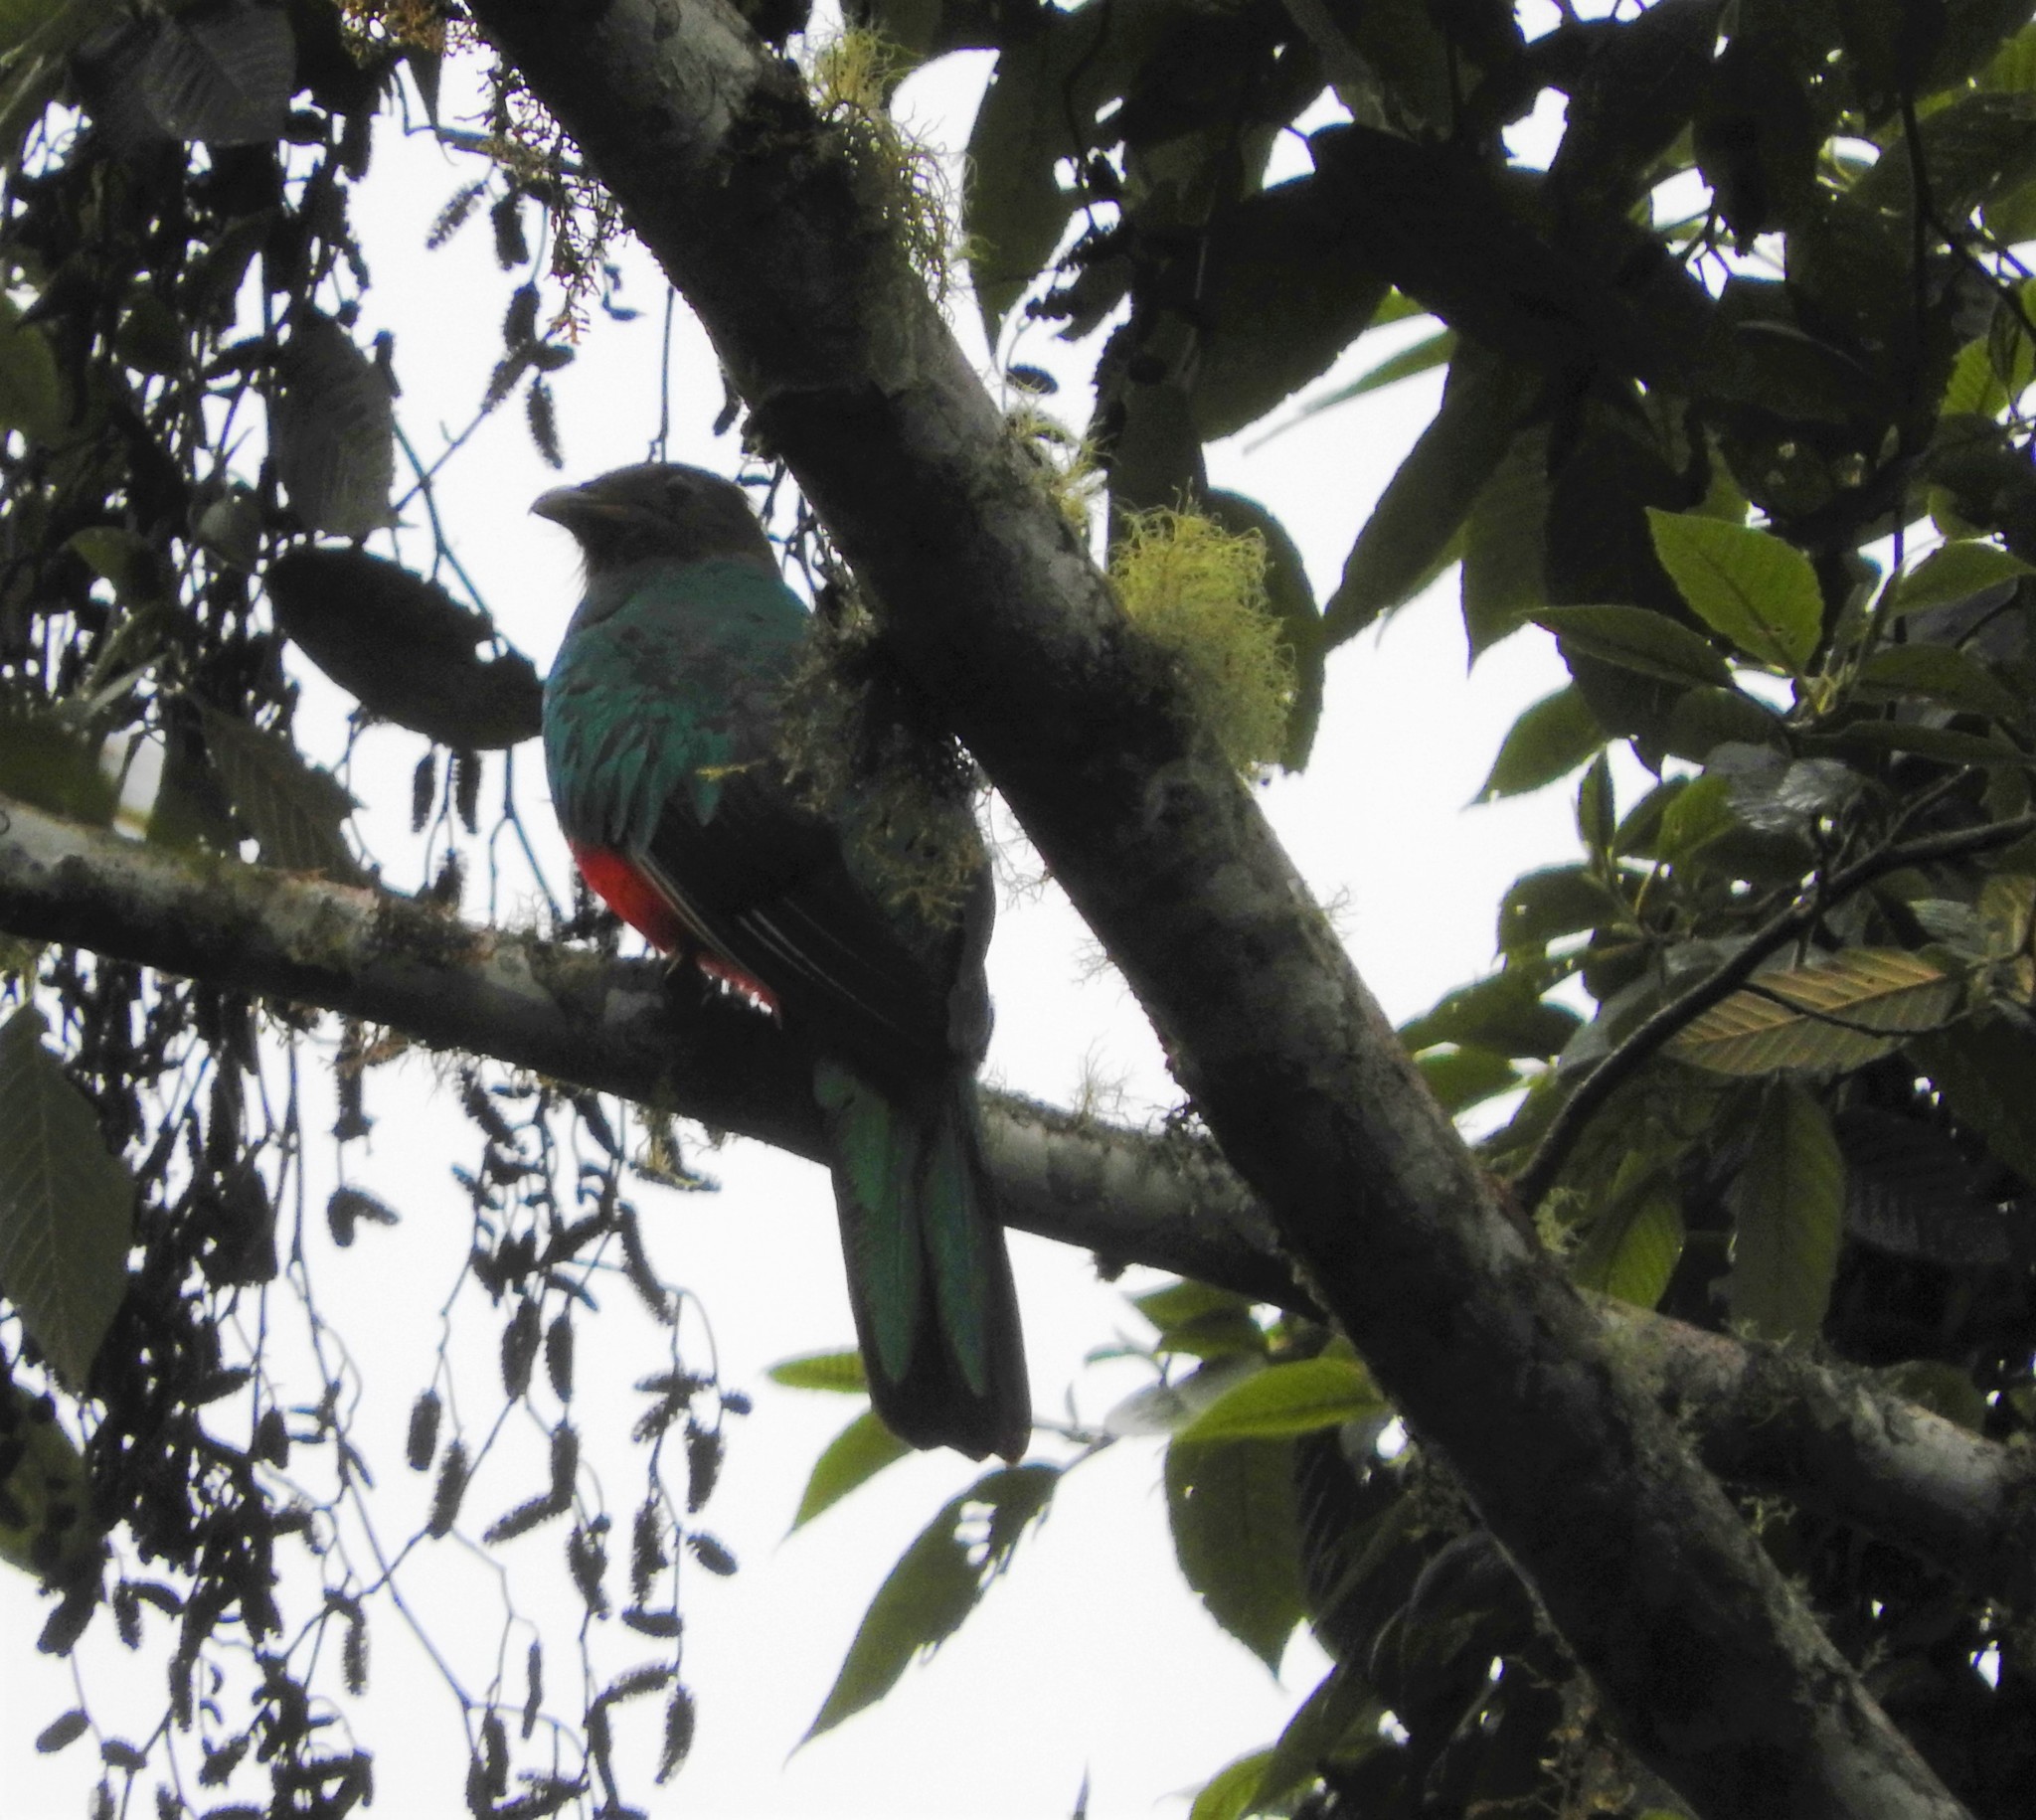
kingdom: Animalia
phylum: Chordata
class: Aves
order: Trogoniformes
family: Trogonidae
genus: Pharomachrus
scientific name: Pharomachrus auriceps
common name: Golden-headed quetzal
